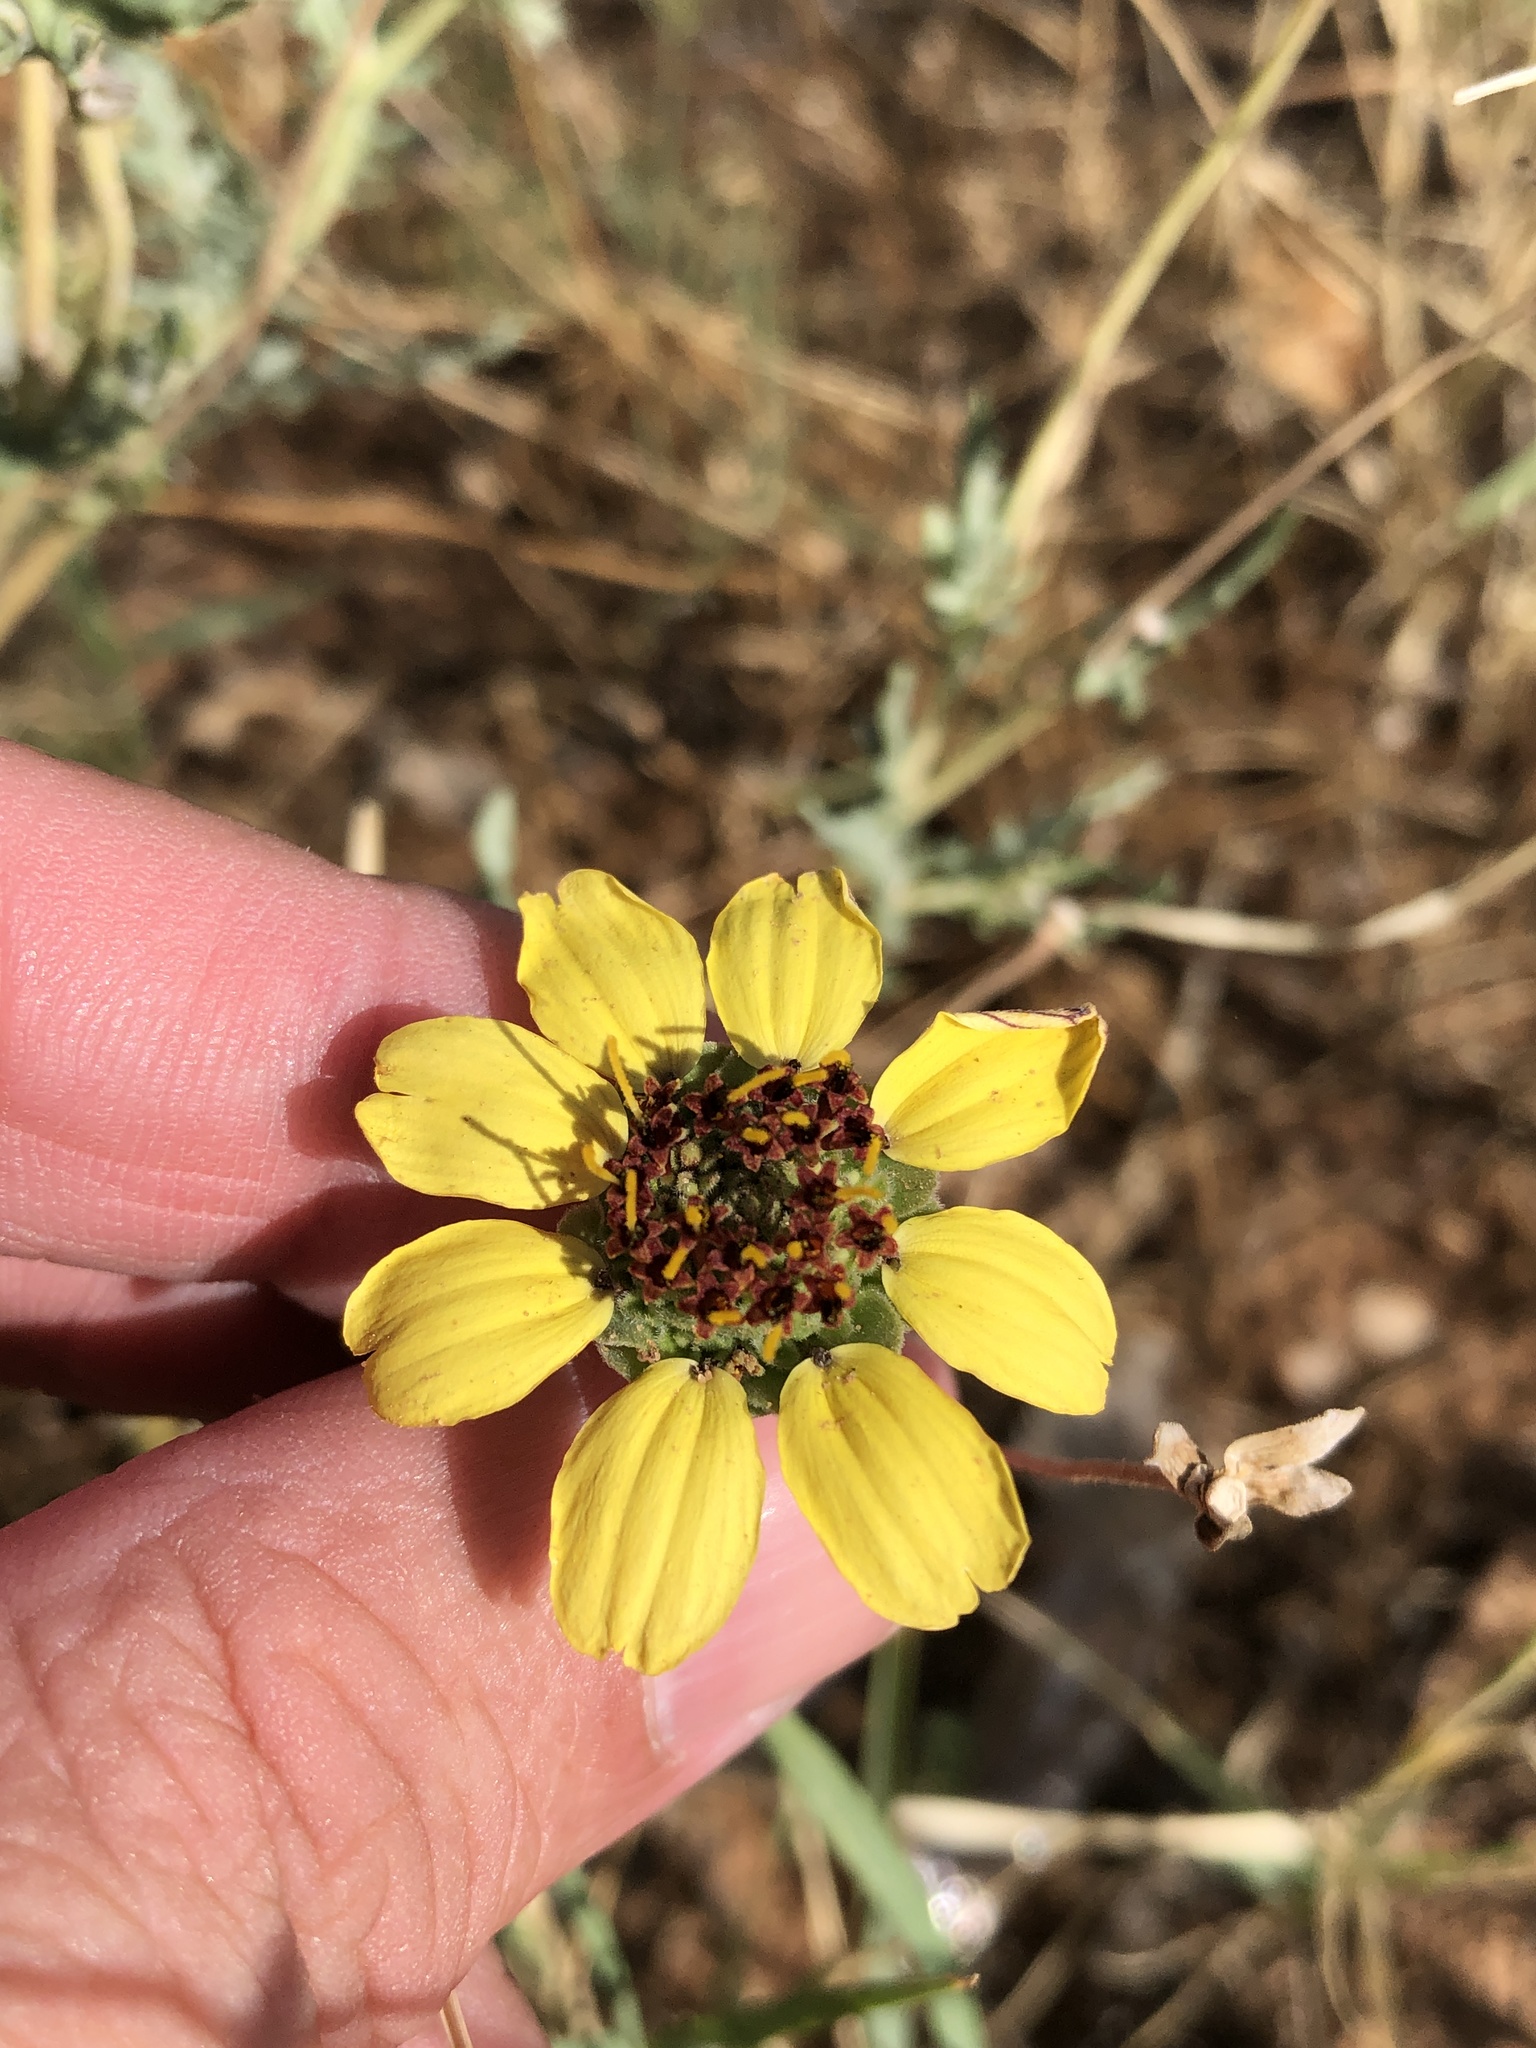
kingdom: Plantae
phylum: Tracheophyta
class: Magnoliopsida
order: Asterales
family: Asteraceae
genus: Berlandiera
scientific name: Berlandiera lyrata
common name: Chocolate-flower
